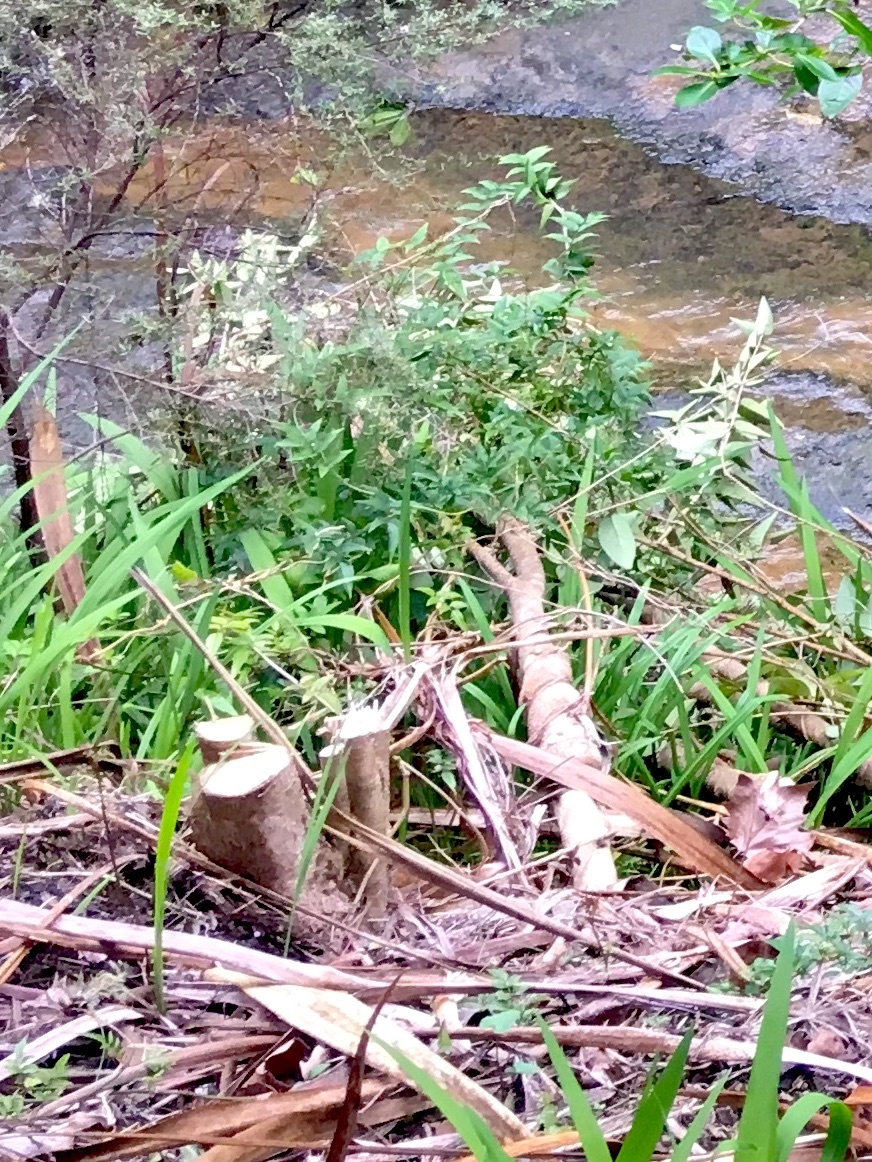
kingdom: Plantae
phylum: Tracheophyta
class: Magnoliopsida
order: Lamiales
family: Oleaceae
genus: Ligustrum
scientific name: Ligustrum lucidum
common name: Glossy privet
